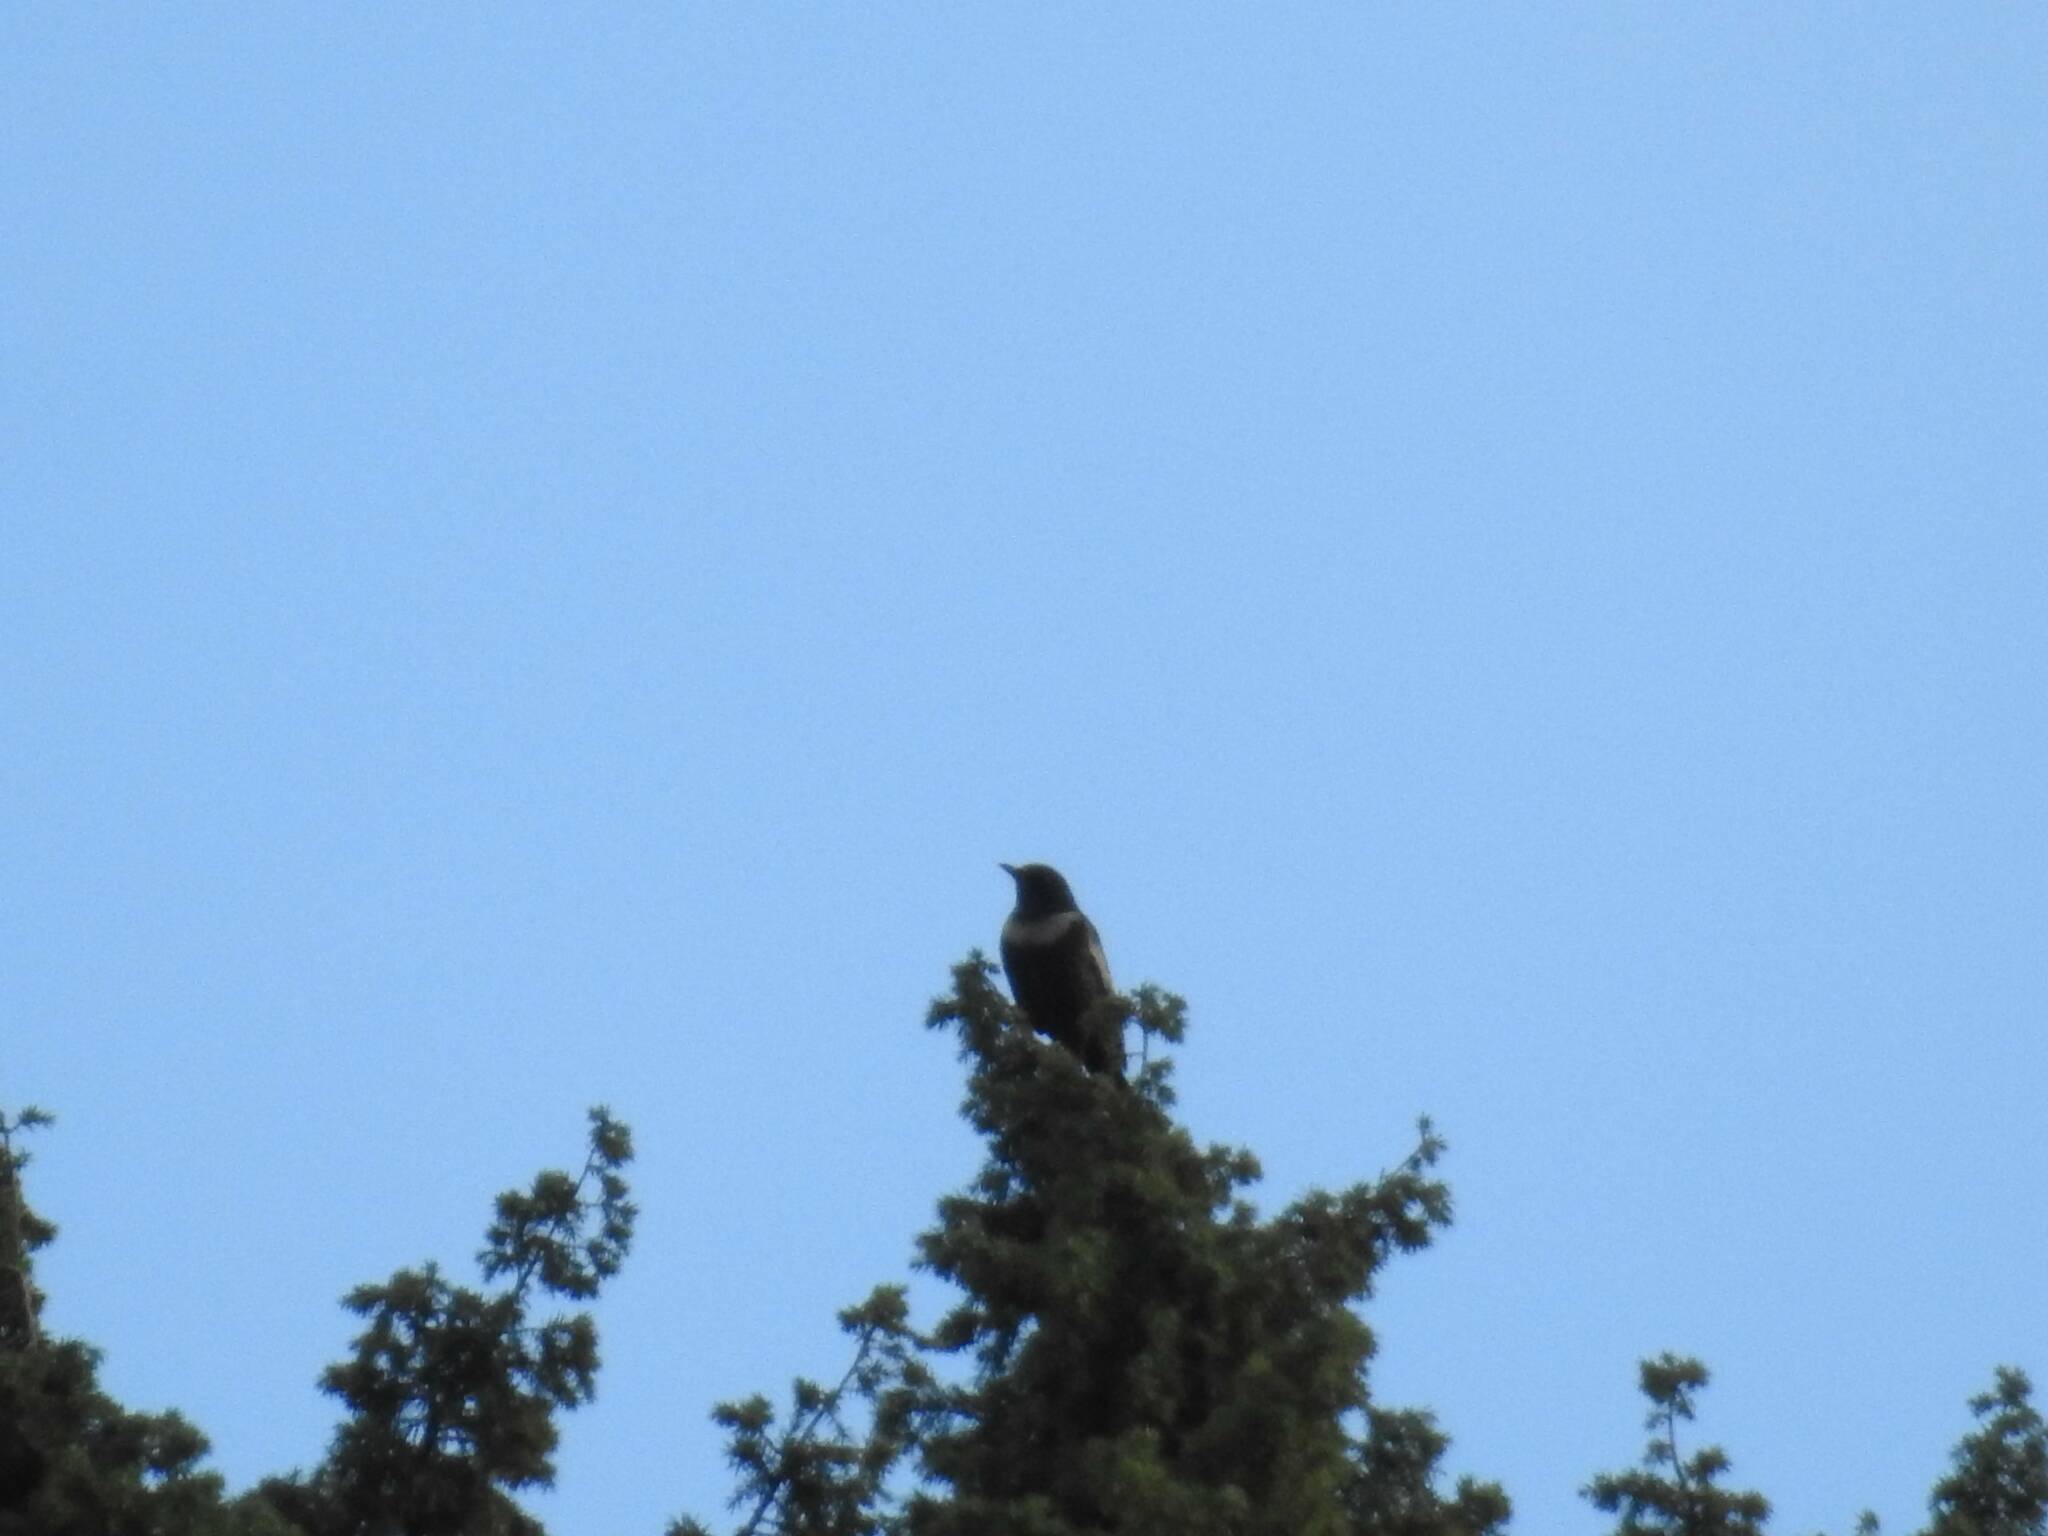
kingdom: Animalia
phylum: Chordata
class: Aves
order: Passeriformes
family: Turdidae
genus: Turdus
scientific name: Turdus torquatus
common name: Ring ouzel
